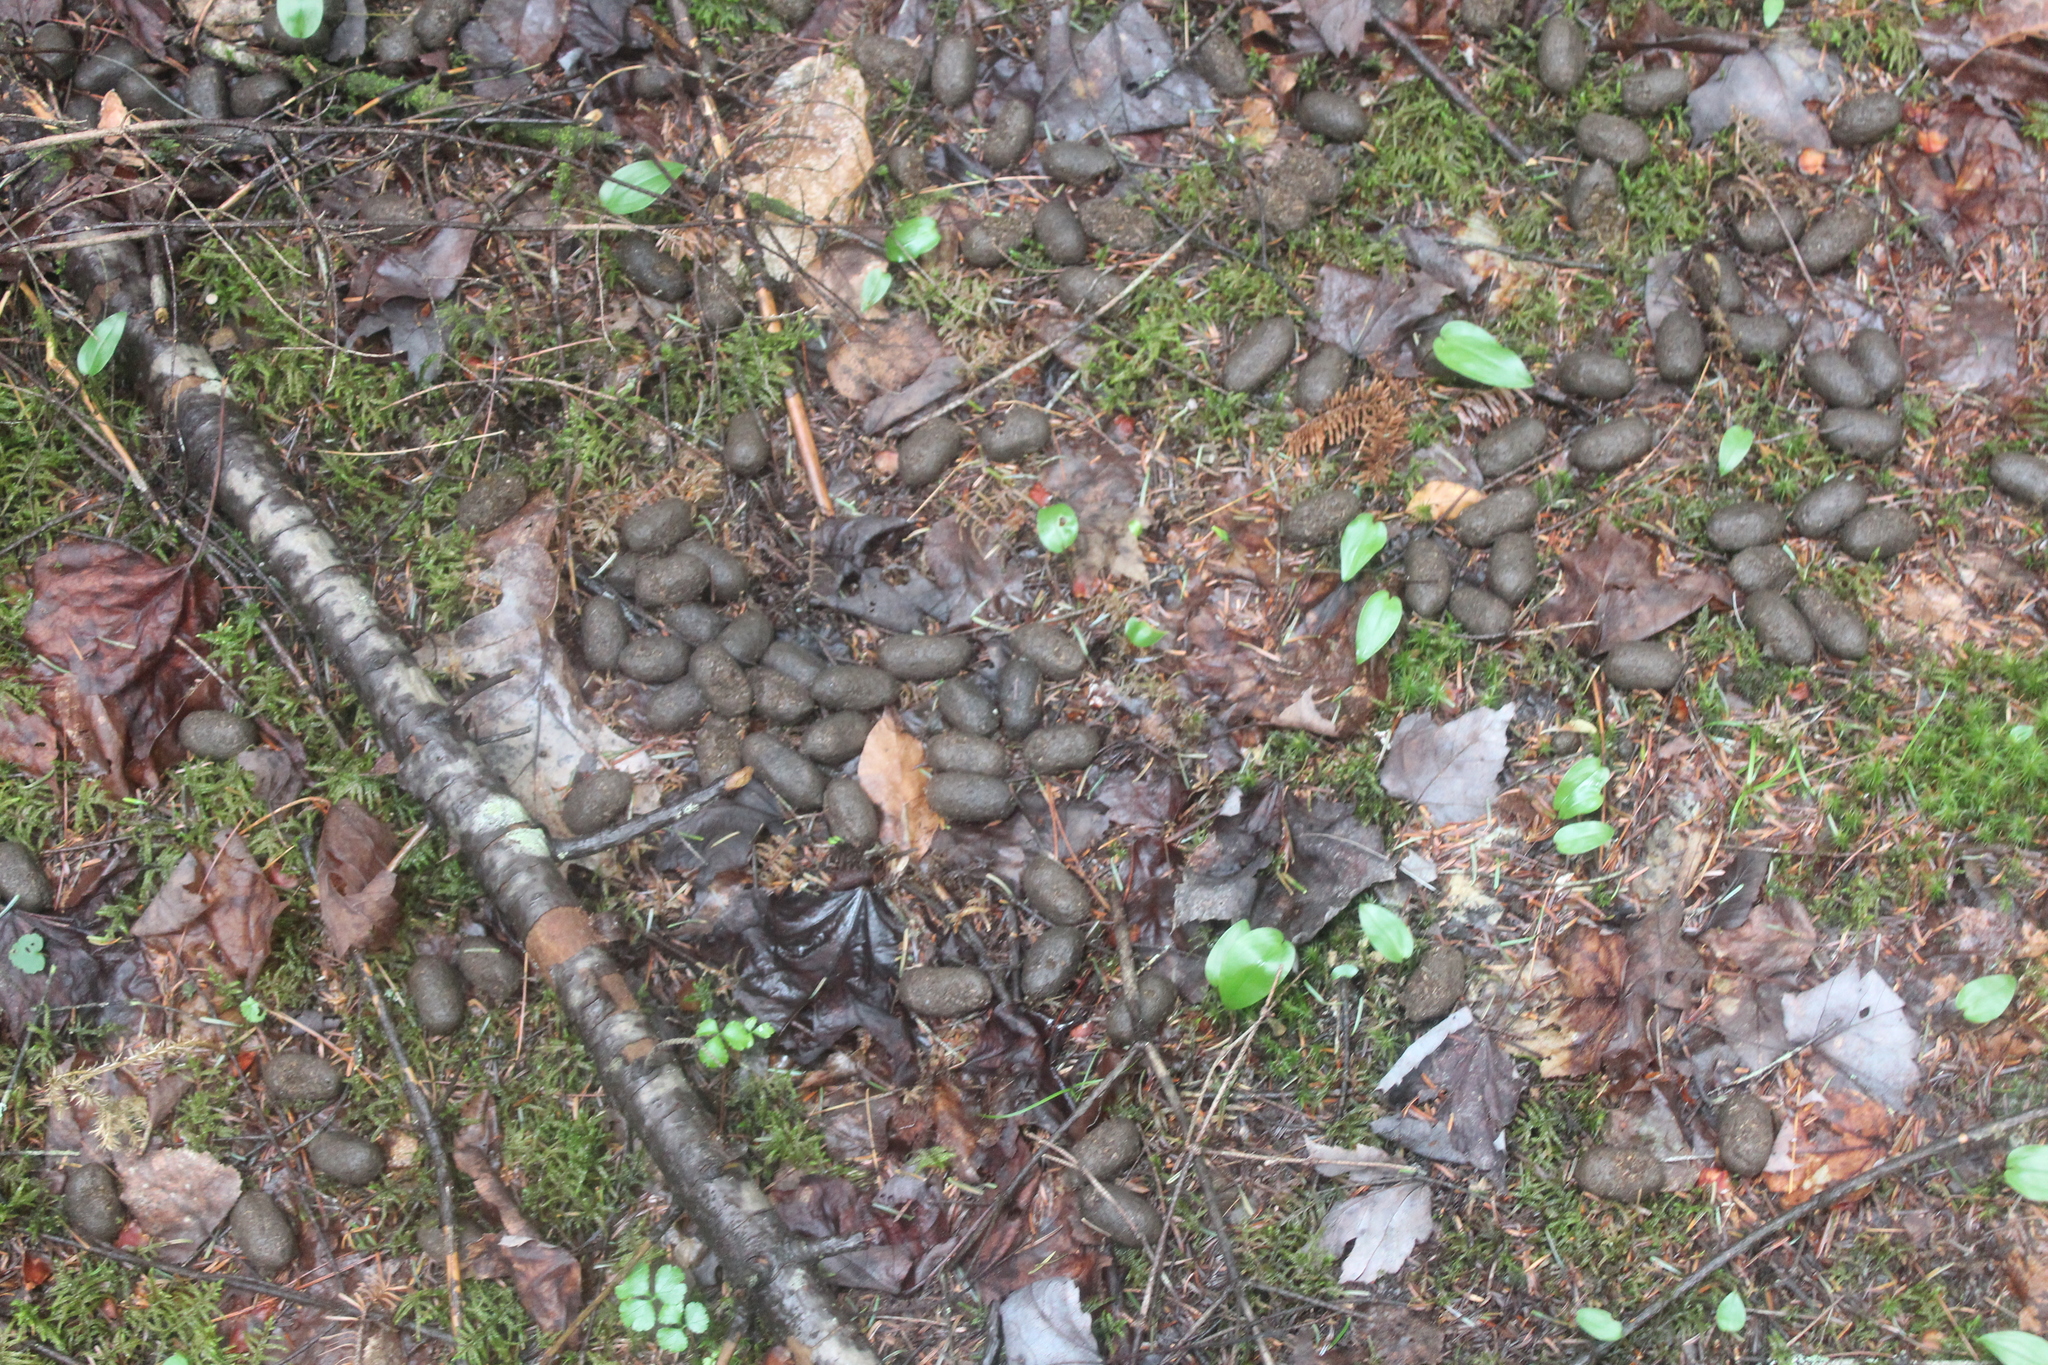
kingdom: Animalia
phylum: Chordata
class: Mammalia
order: Artiodactyla
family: Cervidae
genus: Alces
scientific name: Alces alces
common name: Moose
